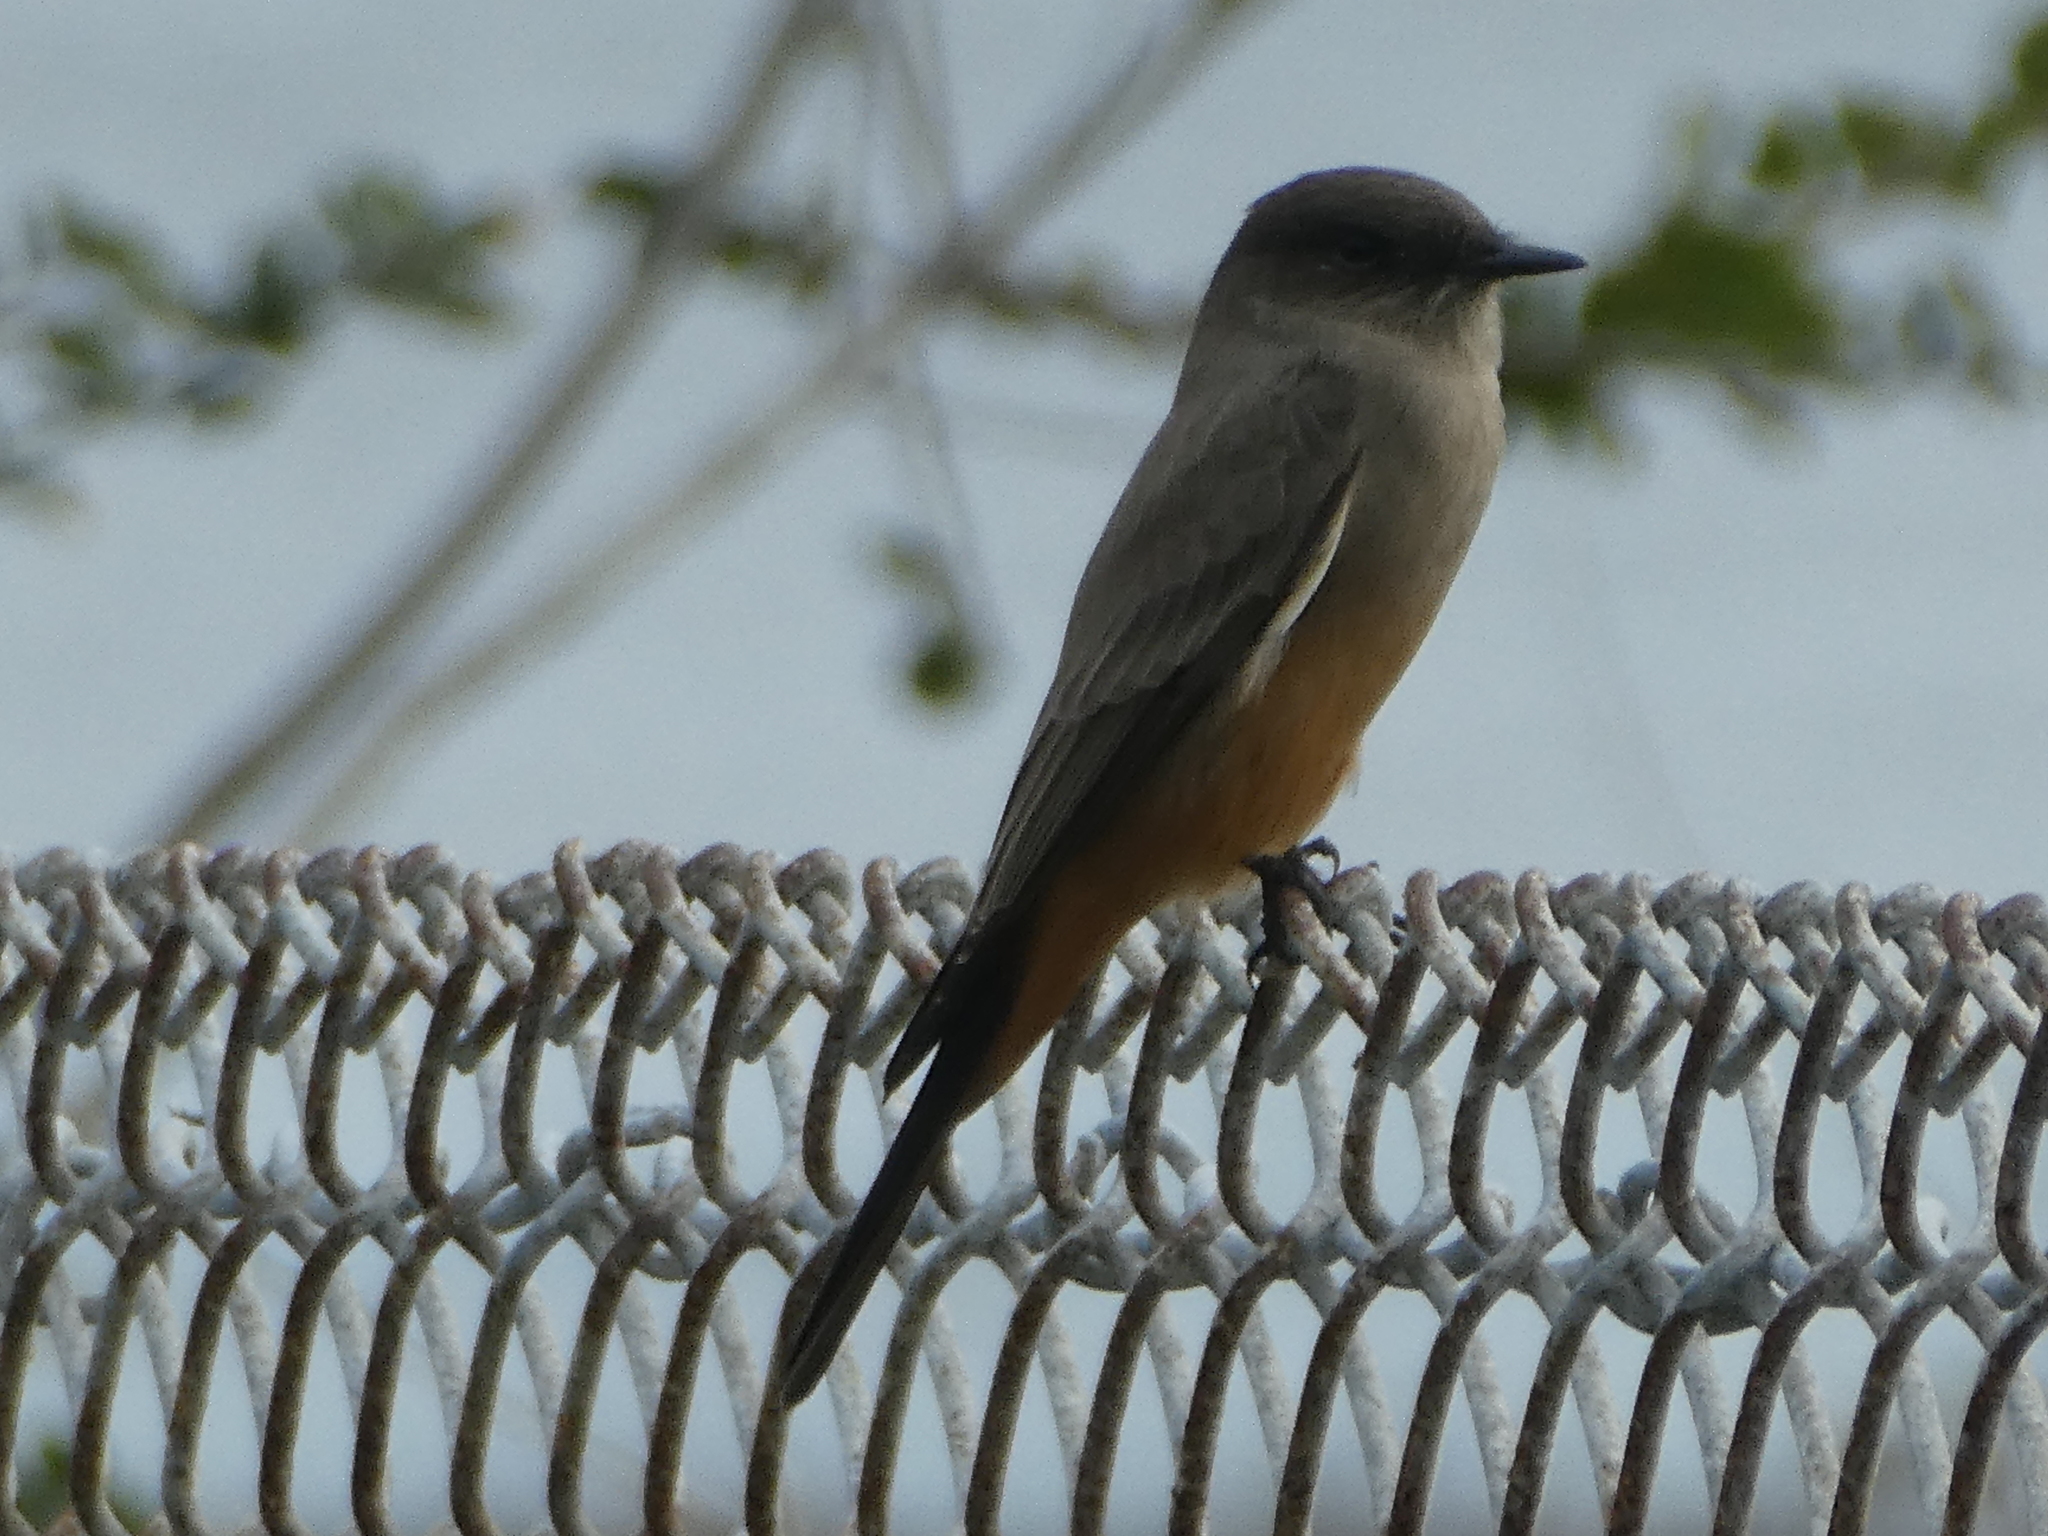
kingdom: Animalia
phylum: Chordata
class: Aves
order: Passeriformes
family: Tyrannidae
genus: Sayornis
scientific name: Sayornis saya
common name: Say's phoebe
